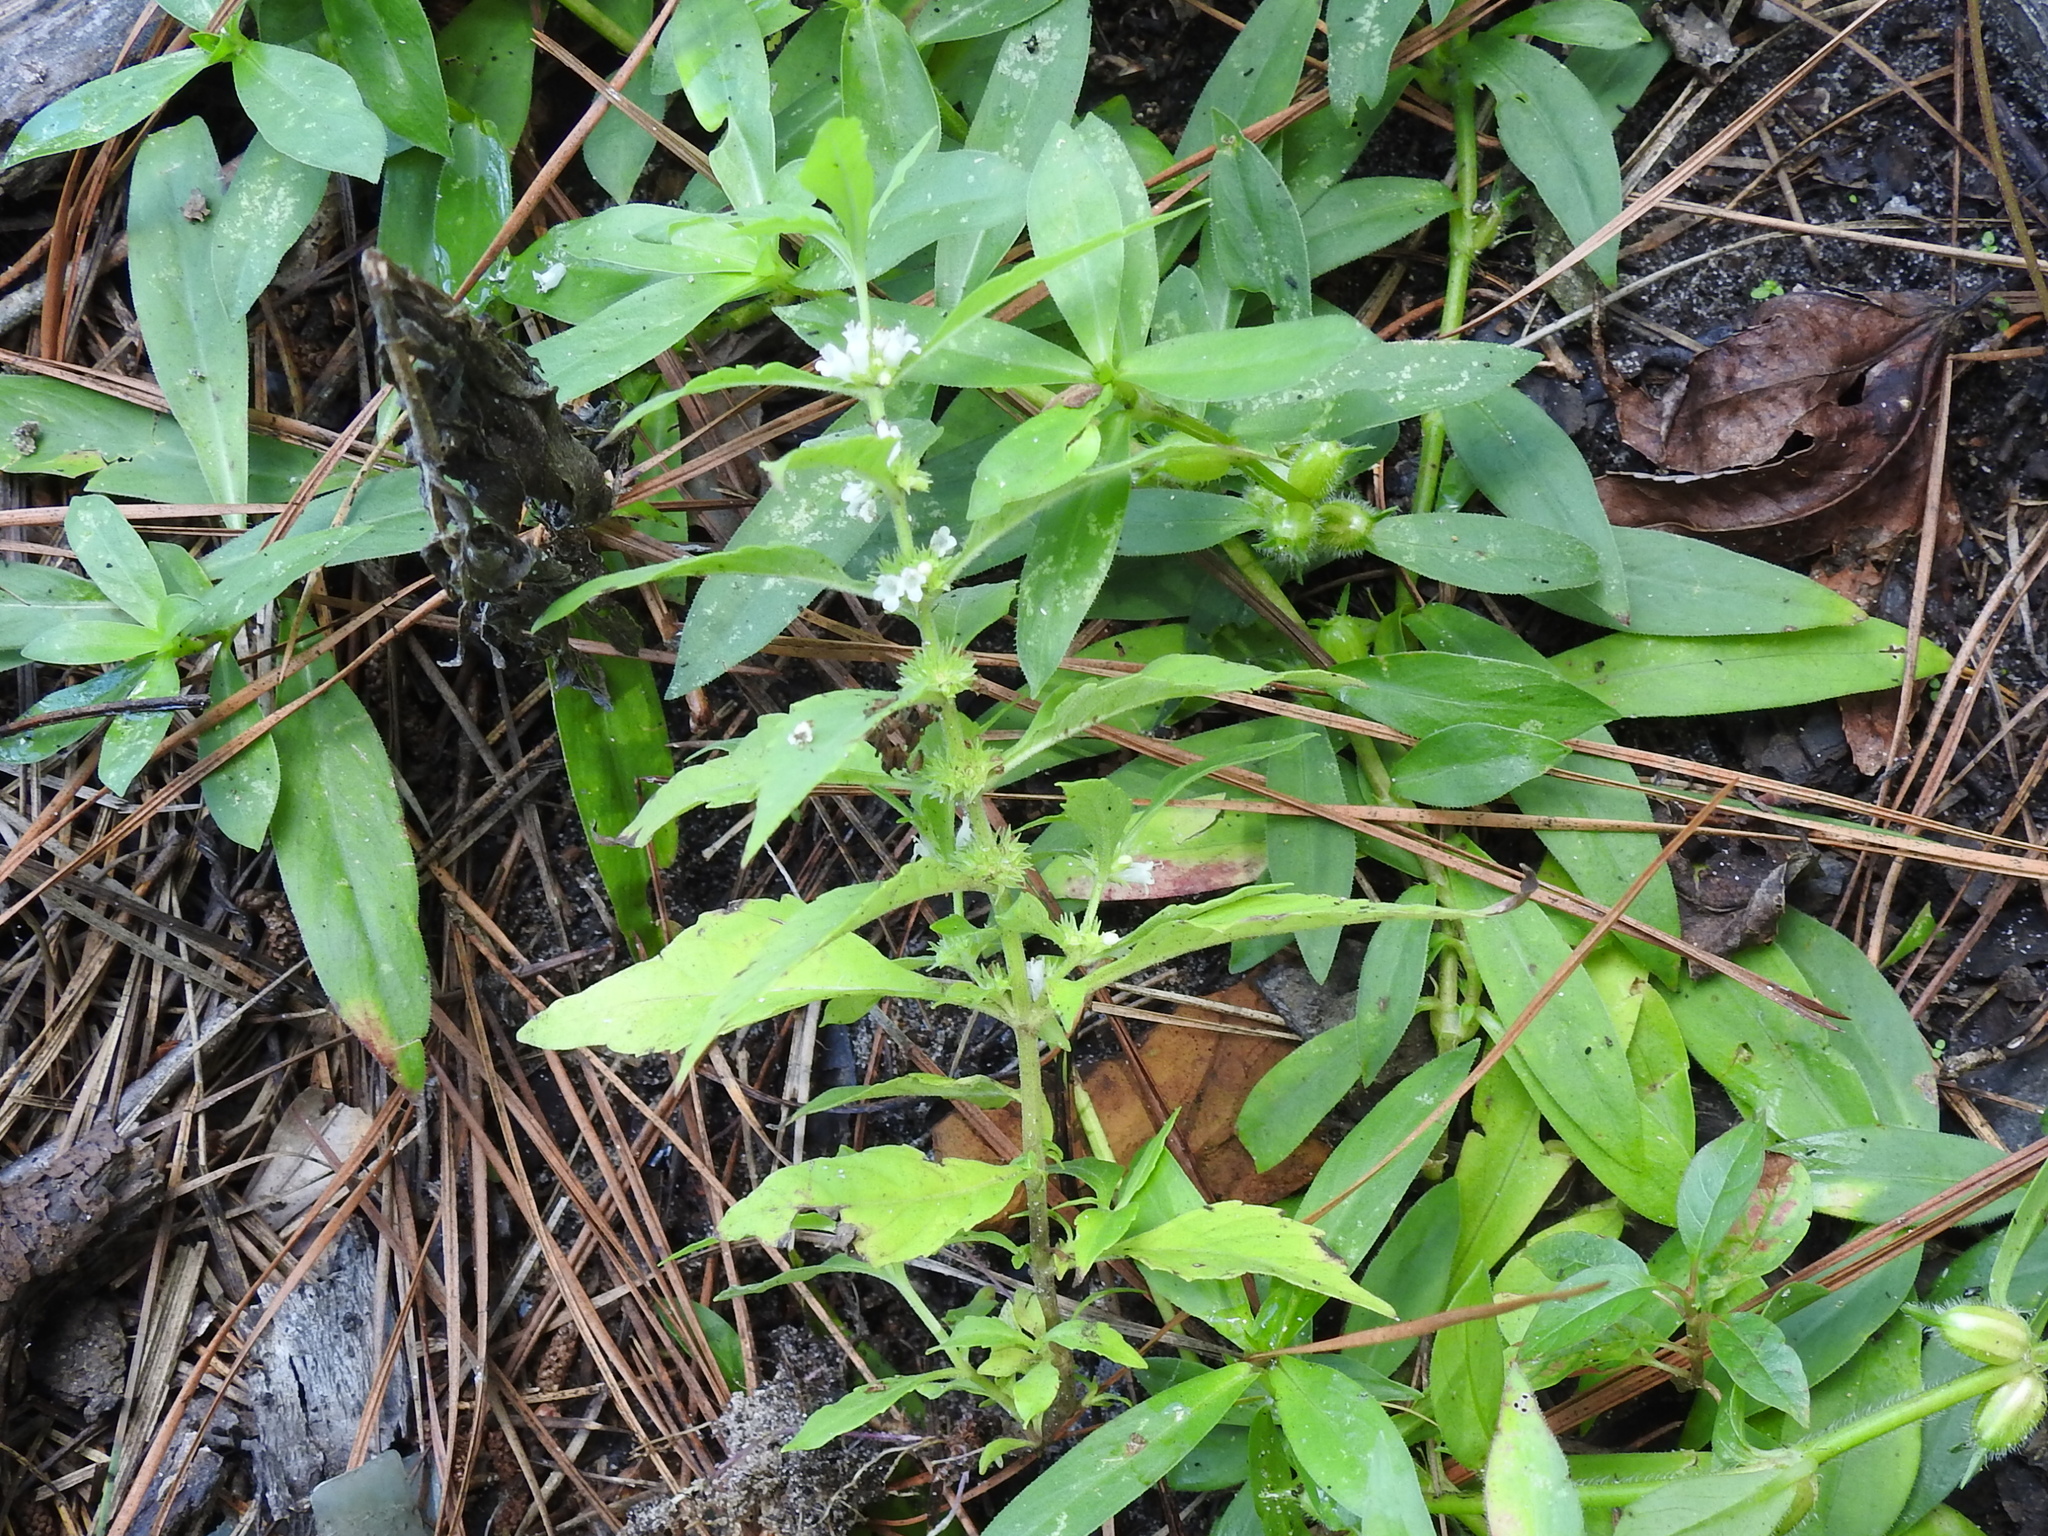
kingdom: Plantae
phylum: Tracheophyta
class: Magnoliopsida
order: Lamiales
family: Lamiaceae
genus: Lycopus
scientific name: Lycopus americanus
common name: American bugleweed
